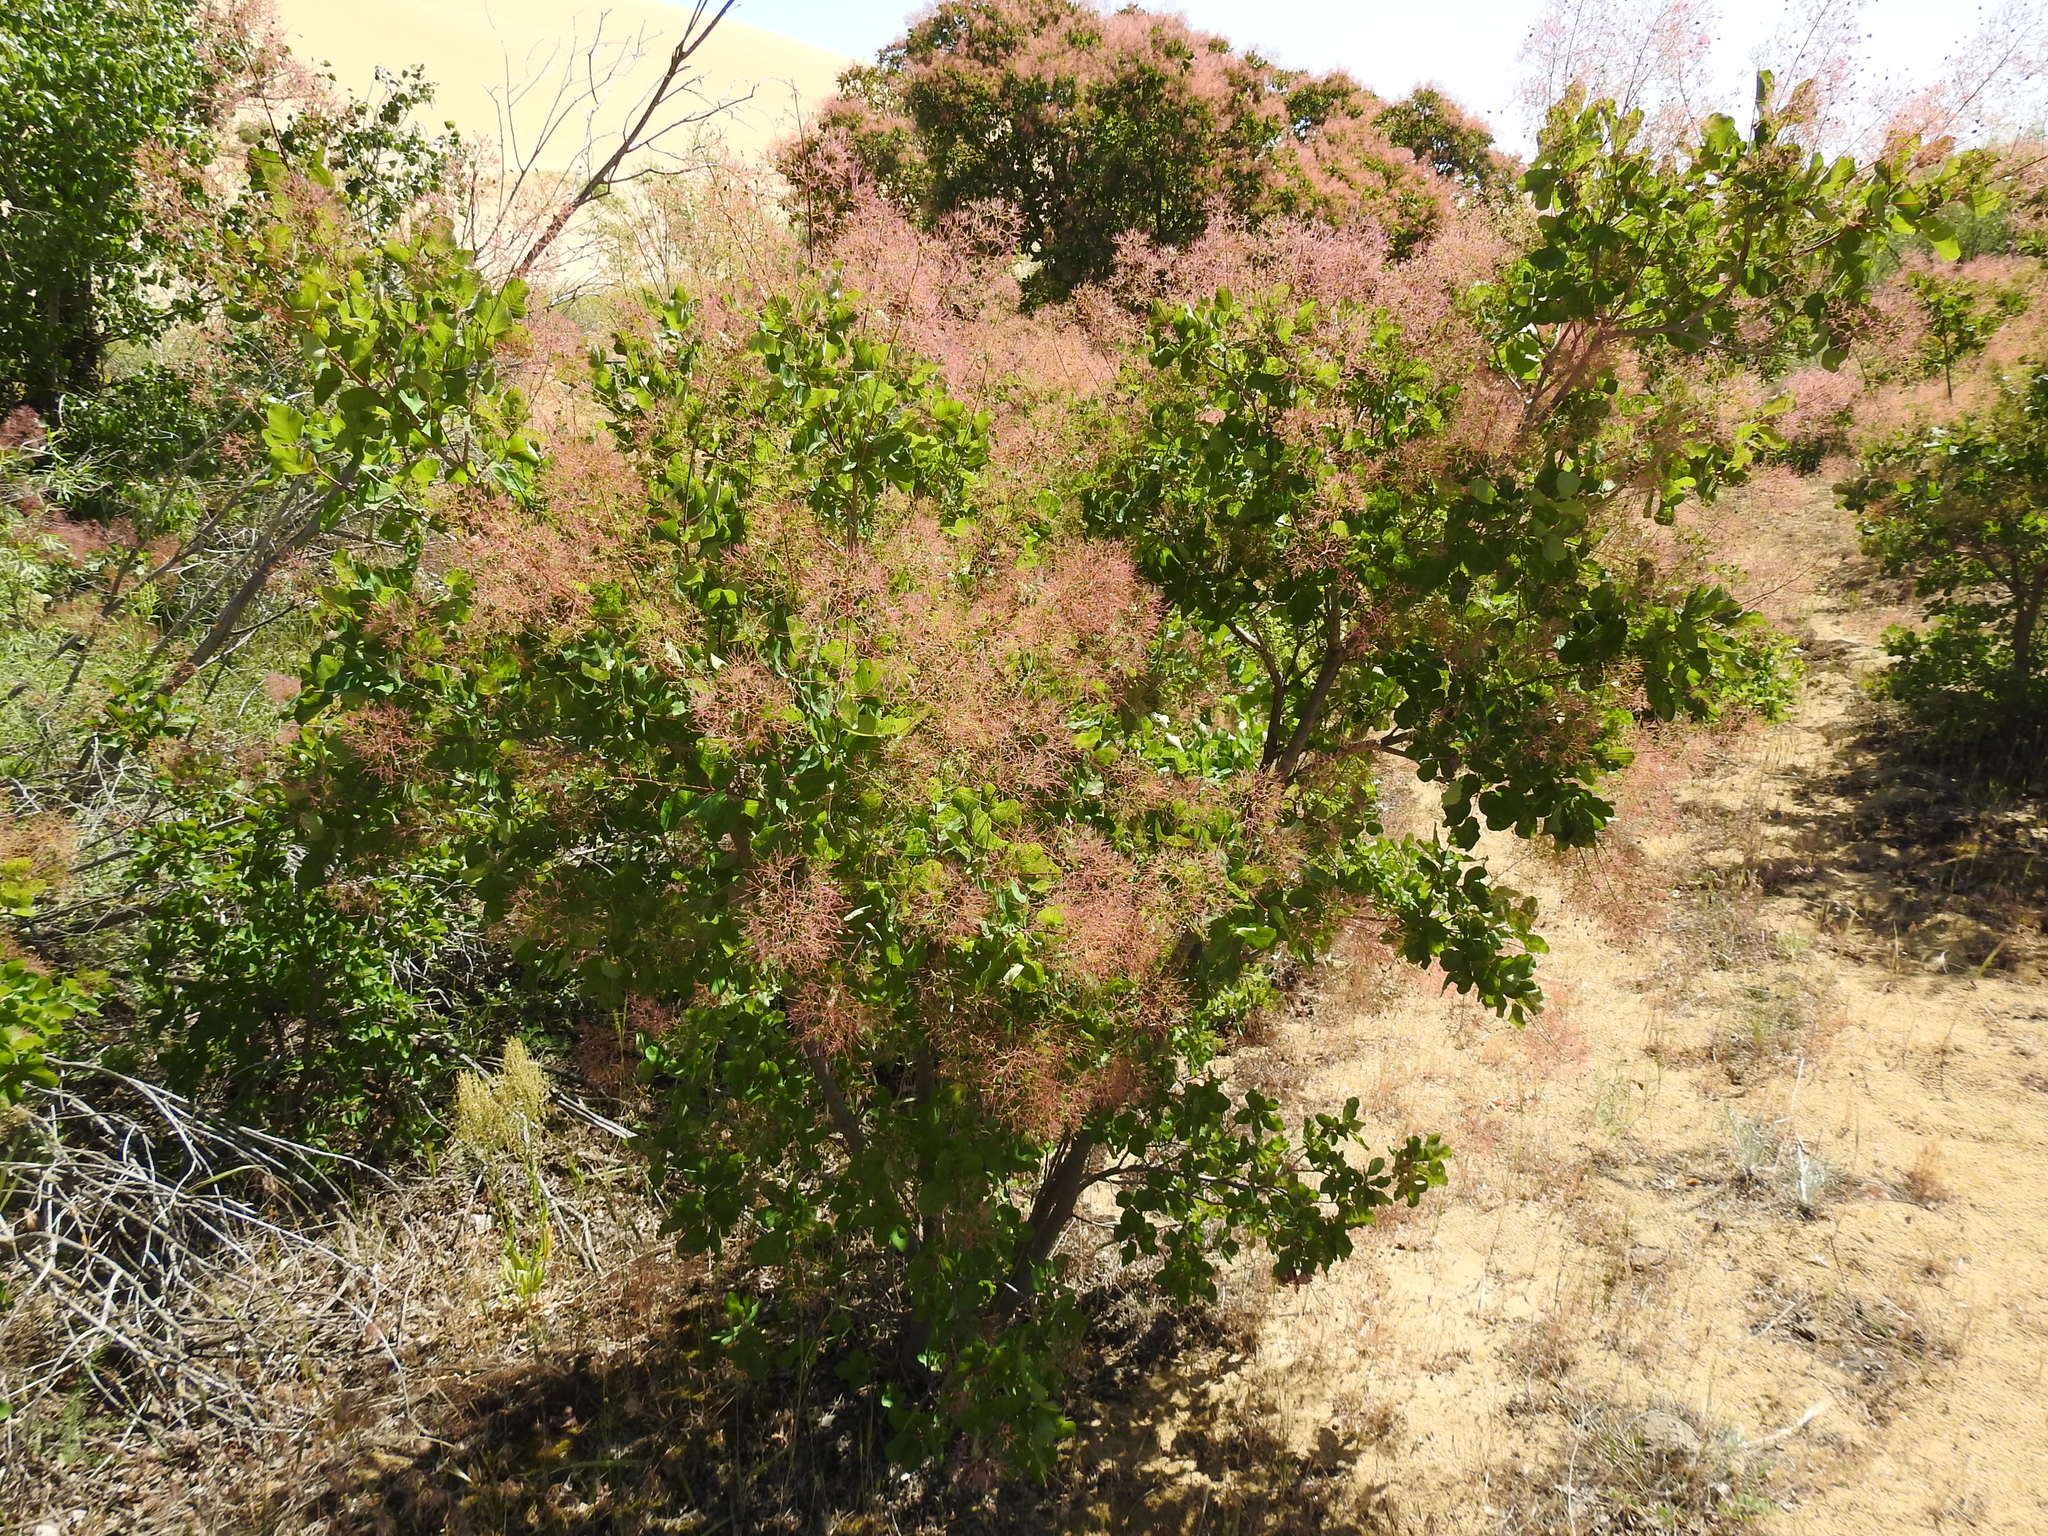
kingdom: Plantae
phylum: Tracheophyta
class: Magnoliopsida
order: Sapindales
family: Anacardiaceae
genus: Cotinus
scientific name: Cotinus coggygria
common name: Smoke-tree
